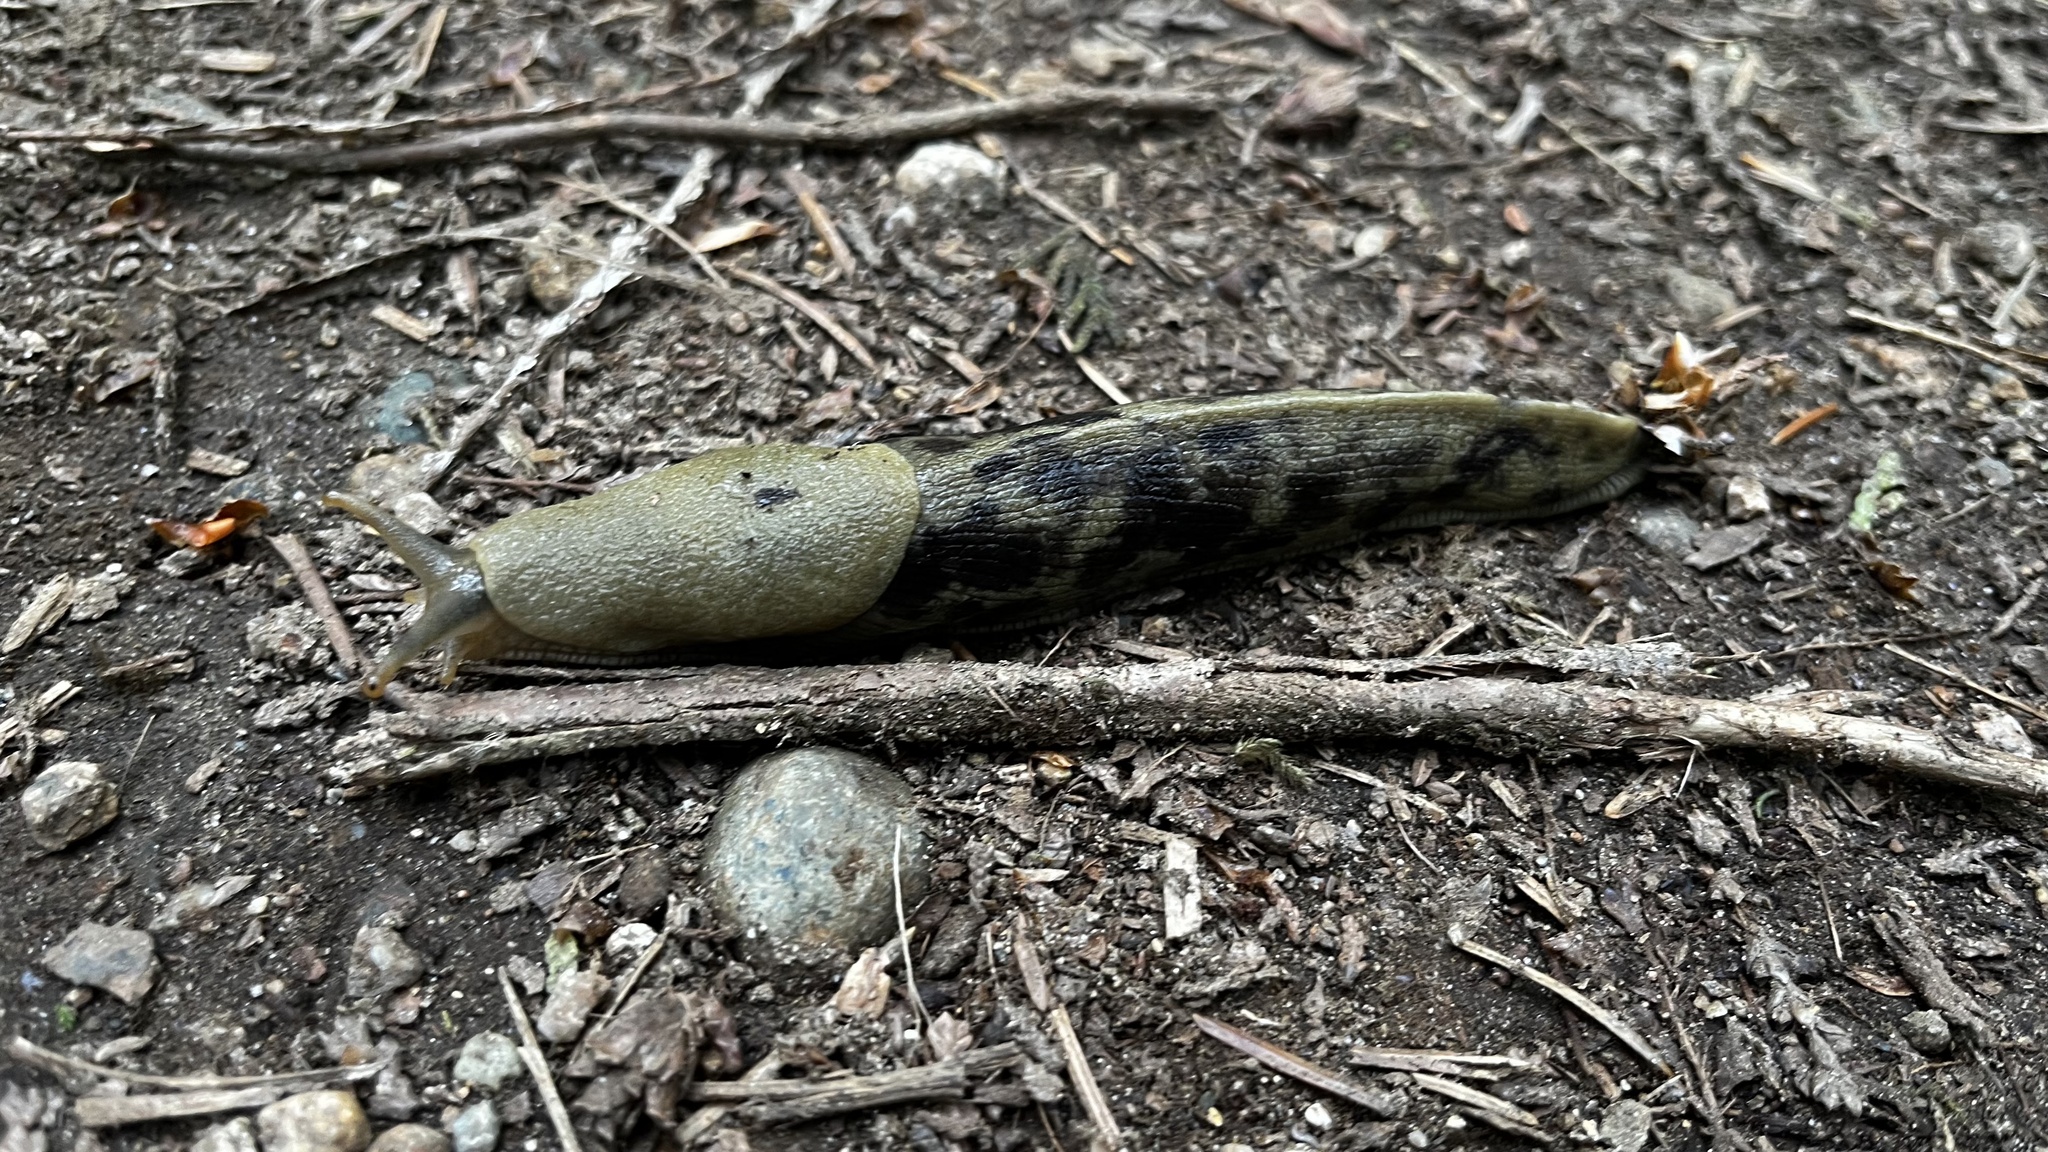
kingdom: Animalia
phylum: Mollusca
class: Gastropoda
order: Stylommatophora
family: Ariolimacidae
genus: Ariolimax
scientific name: Ariolimax columbianus
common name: Pacific banana slug
